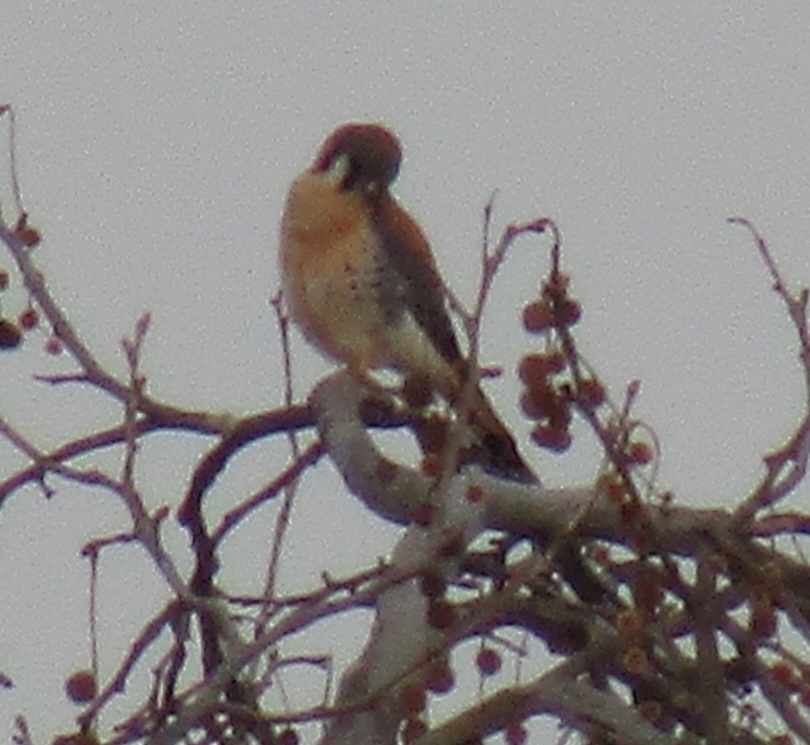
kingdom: Animalia
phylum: Chordata
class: Aves
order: Falconiformes
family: Falconidae
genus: Falco
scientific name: Falco sparverius
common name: American kestrel
